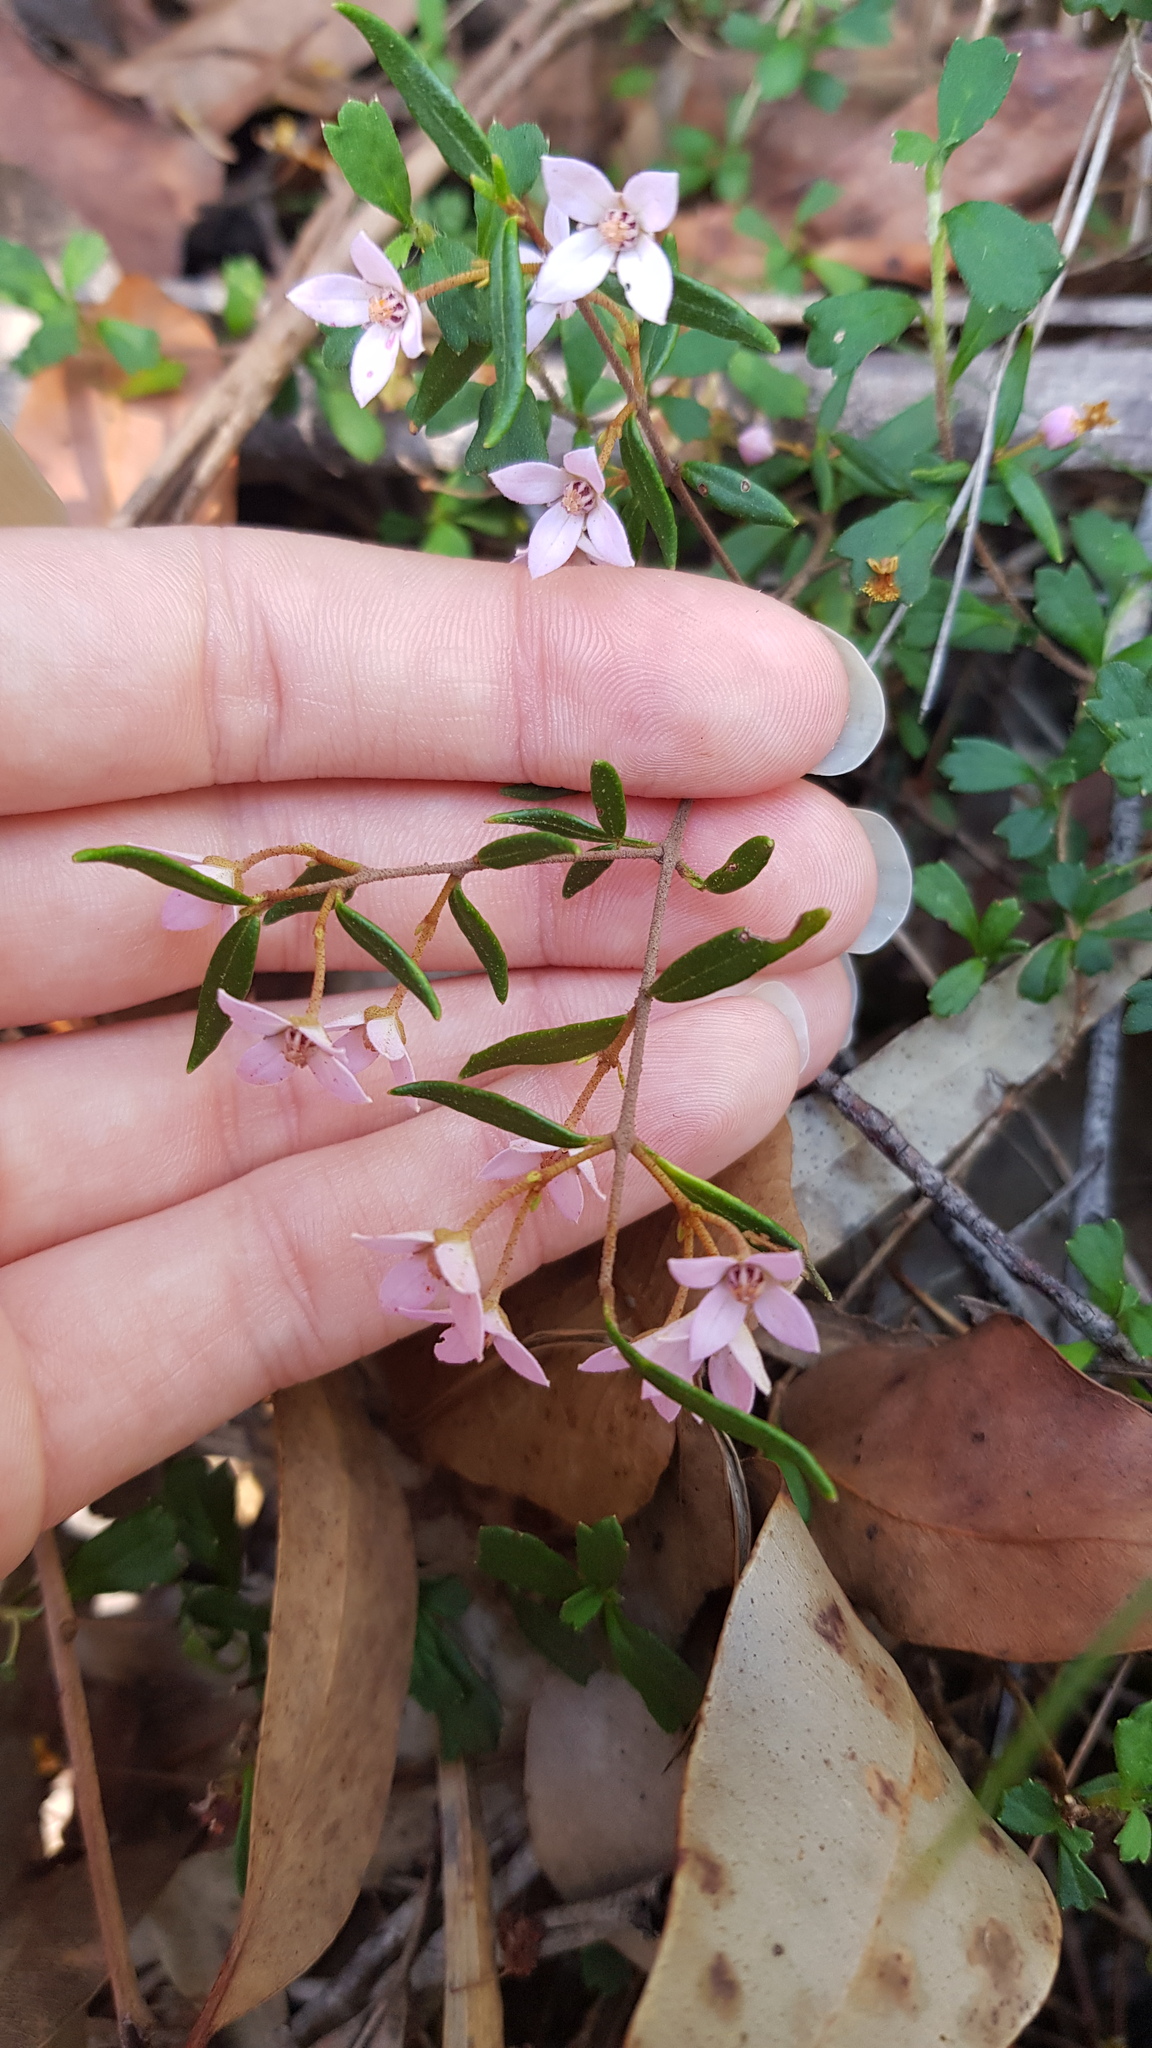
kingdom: Plantae
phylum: Tracheophyta
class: Magnoliopsida
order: Sapindales
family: Rutaceae
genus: Boronia
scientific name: Boronia ledifolia
